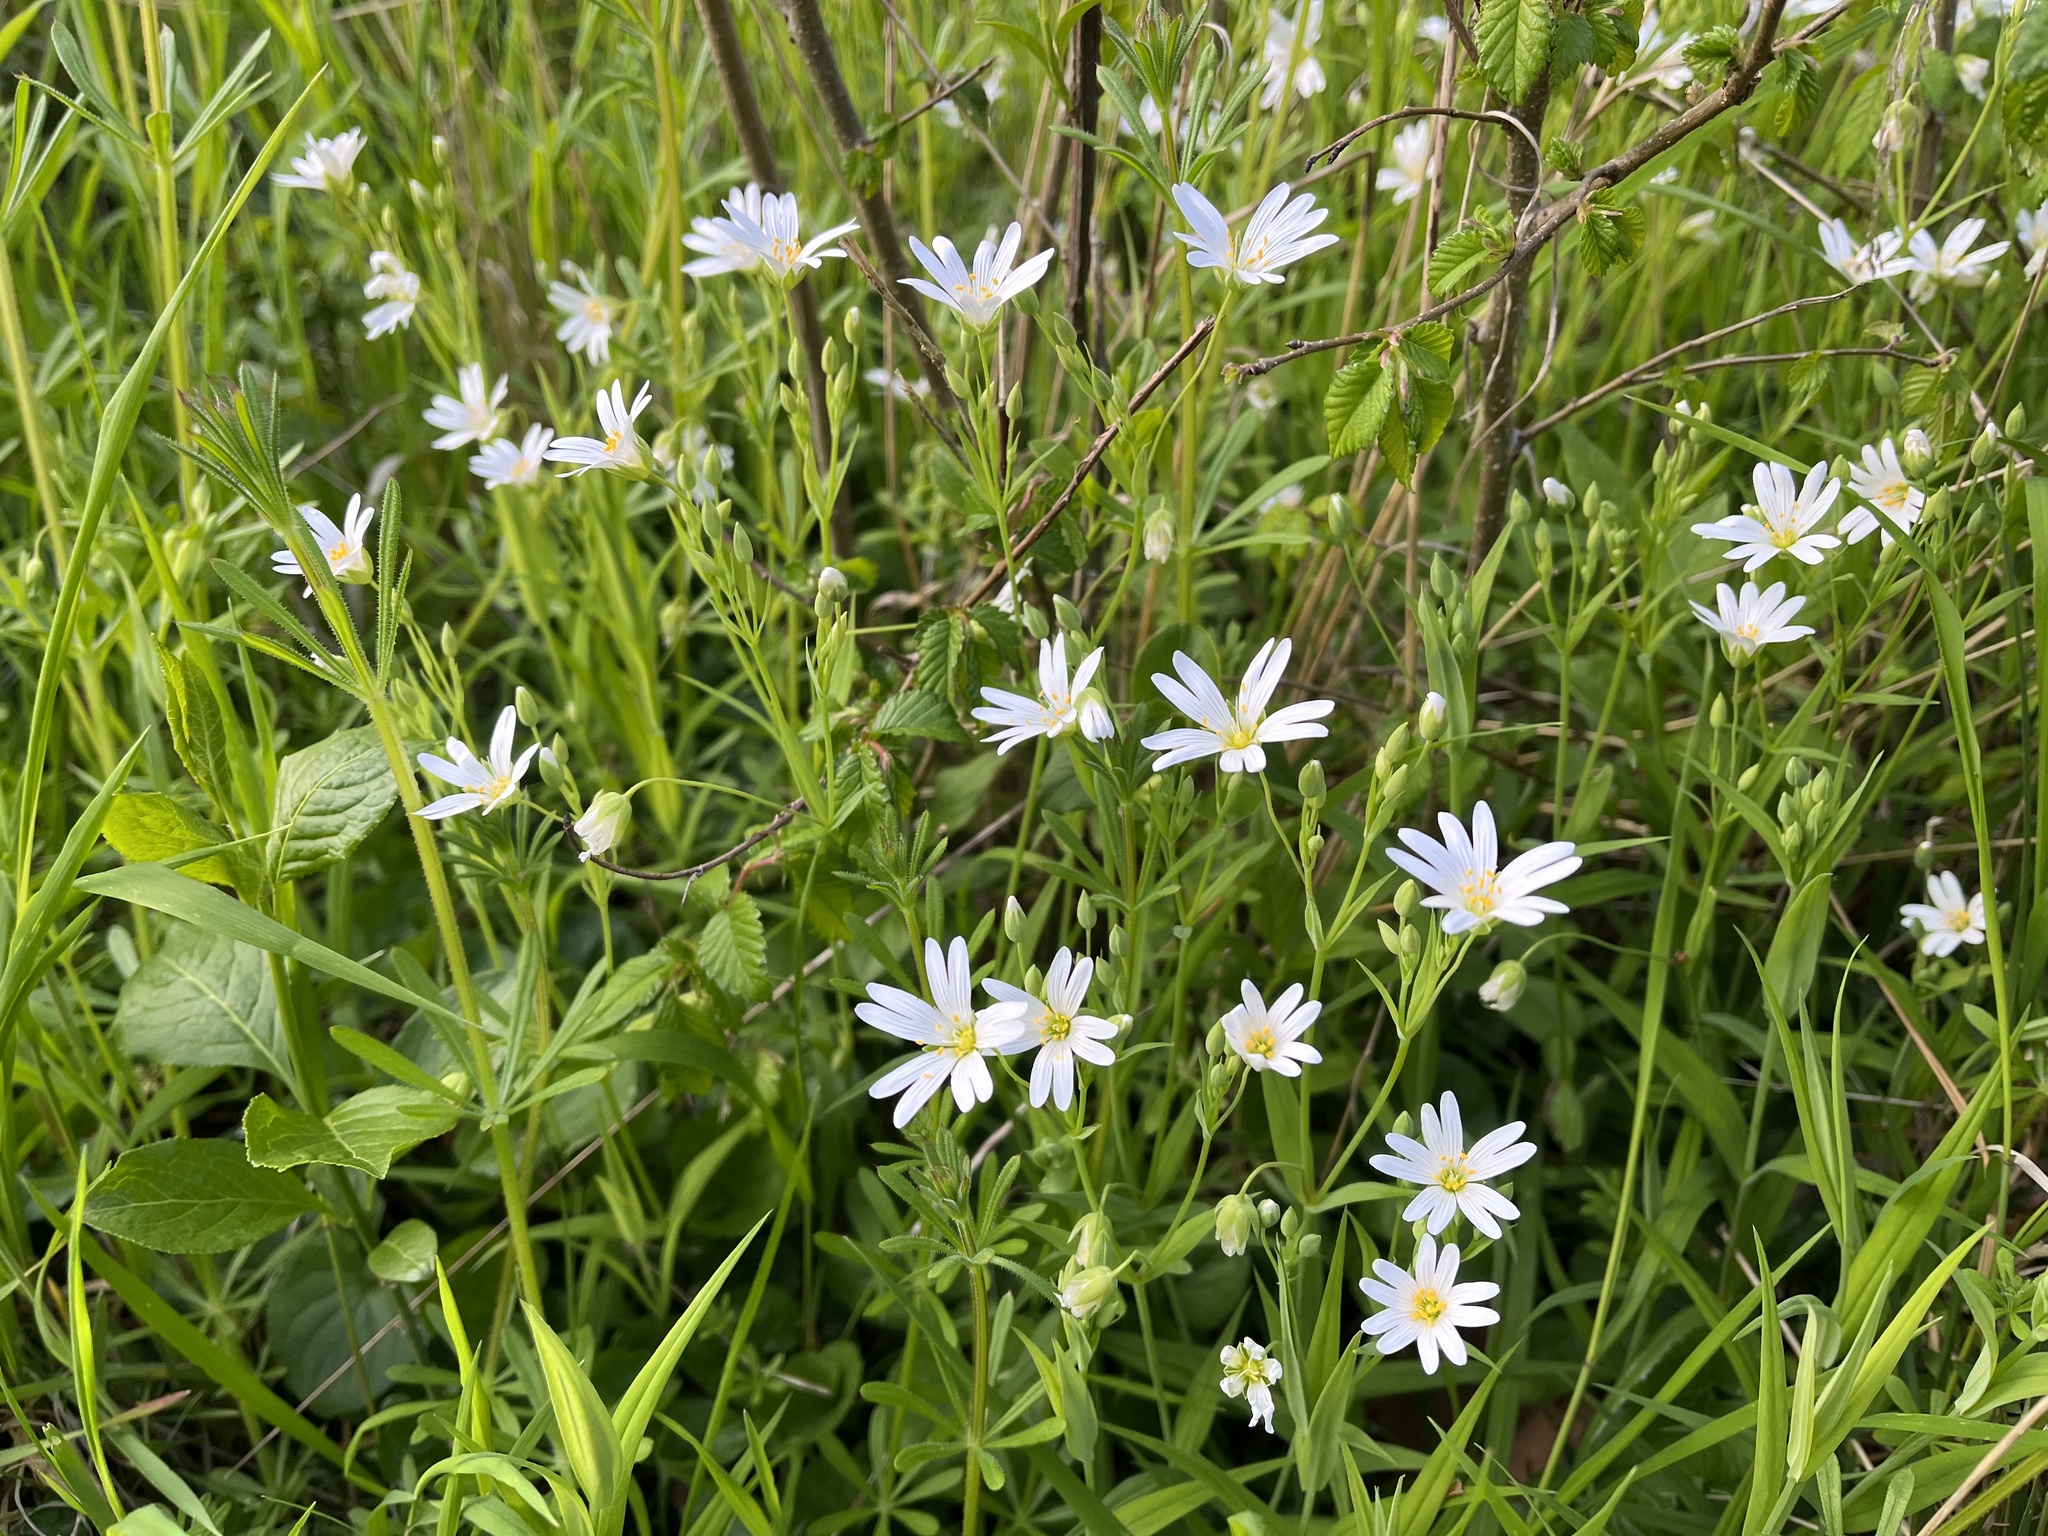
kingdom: Plantae
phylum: Tracheophyta
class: Magnoliopsida
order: Caryophyllales
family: Caryophyllaceae
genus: Rabelera
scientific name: Rabelera holostea
